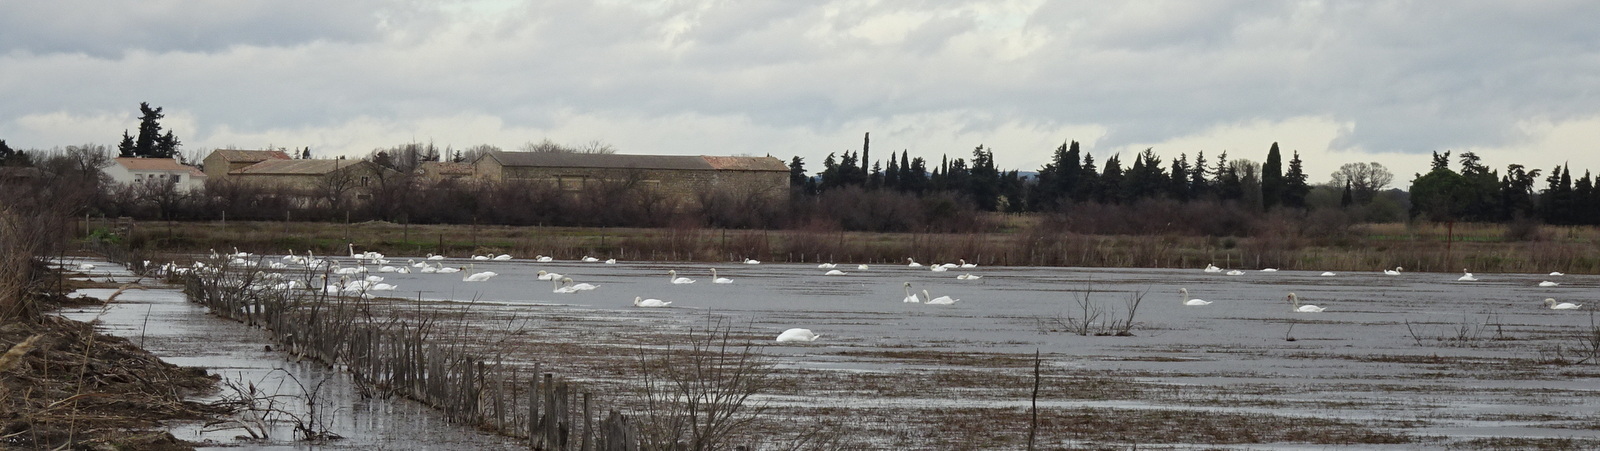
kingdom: Animalia
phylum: Chordata
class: Aves
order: Anseriformes
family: Anatidae
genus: Cygnus
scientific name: Cygnus olor
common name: Mute swan
